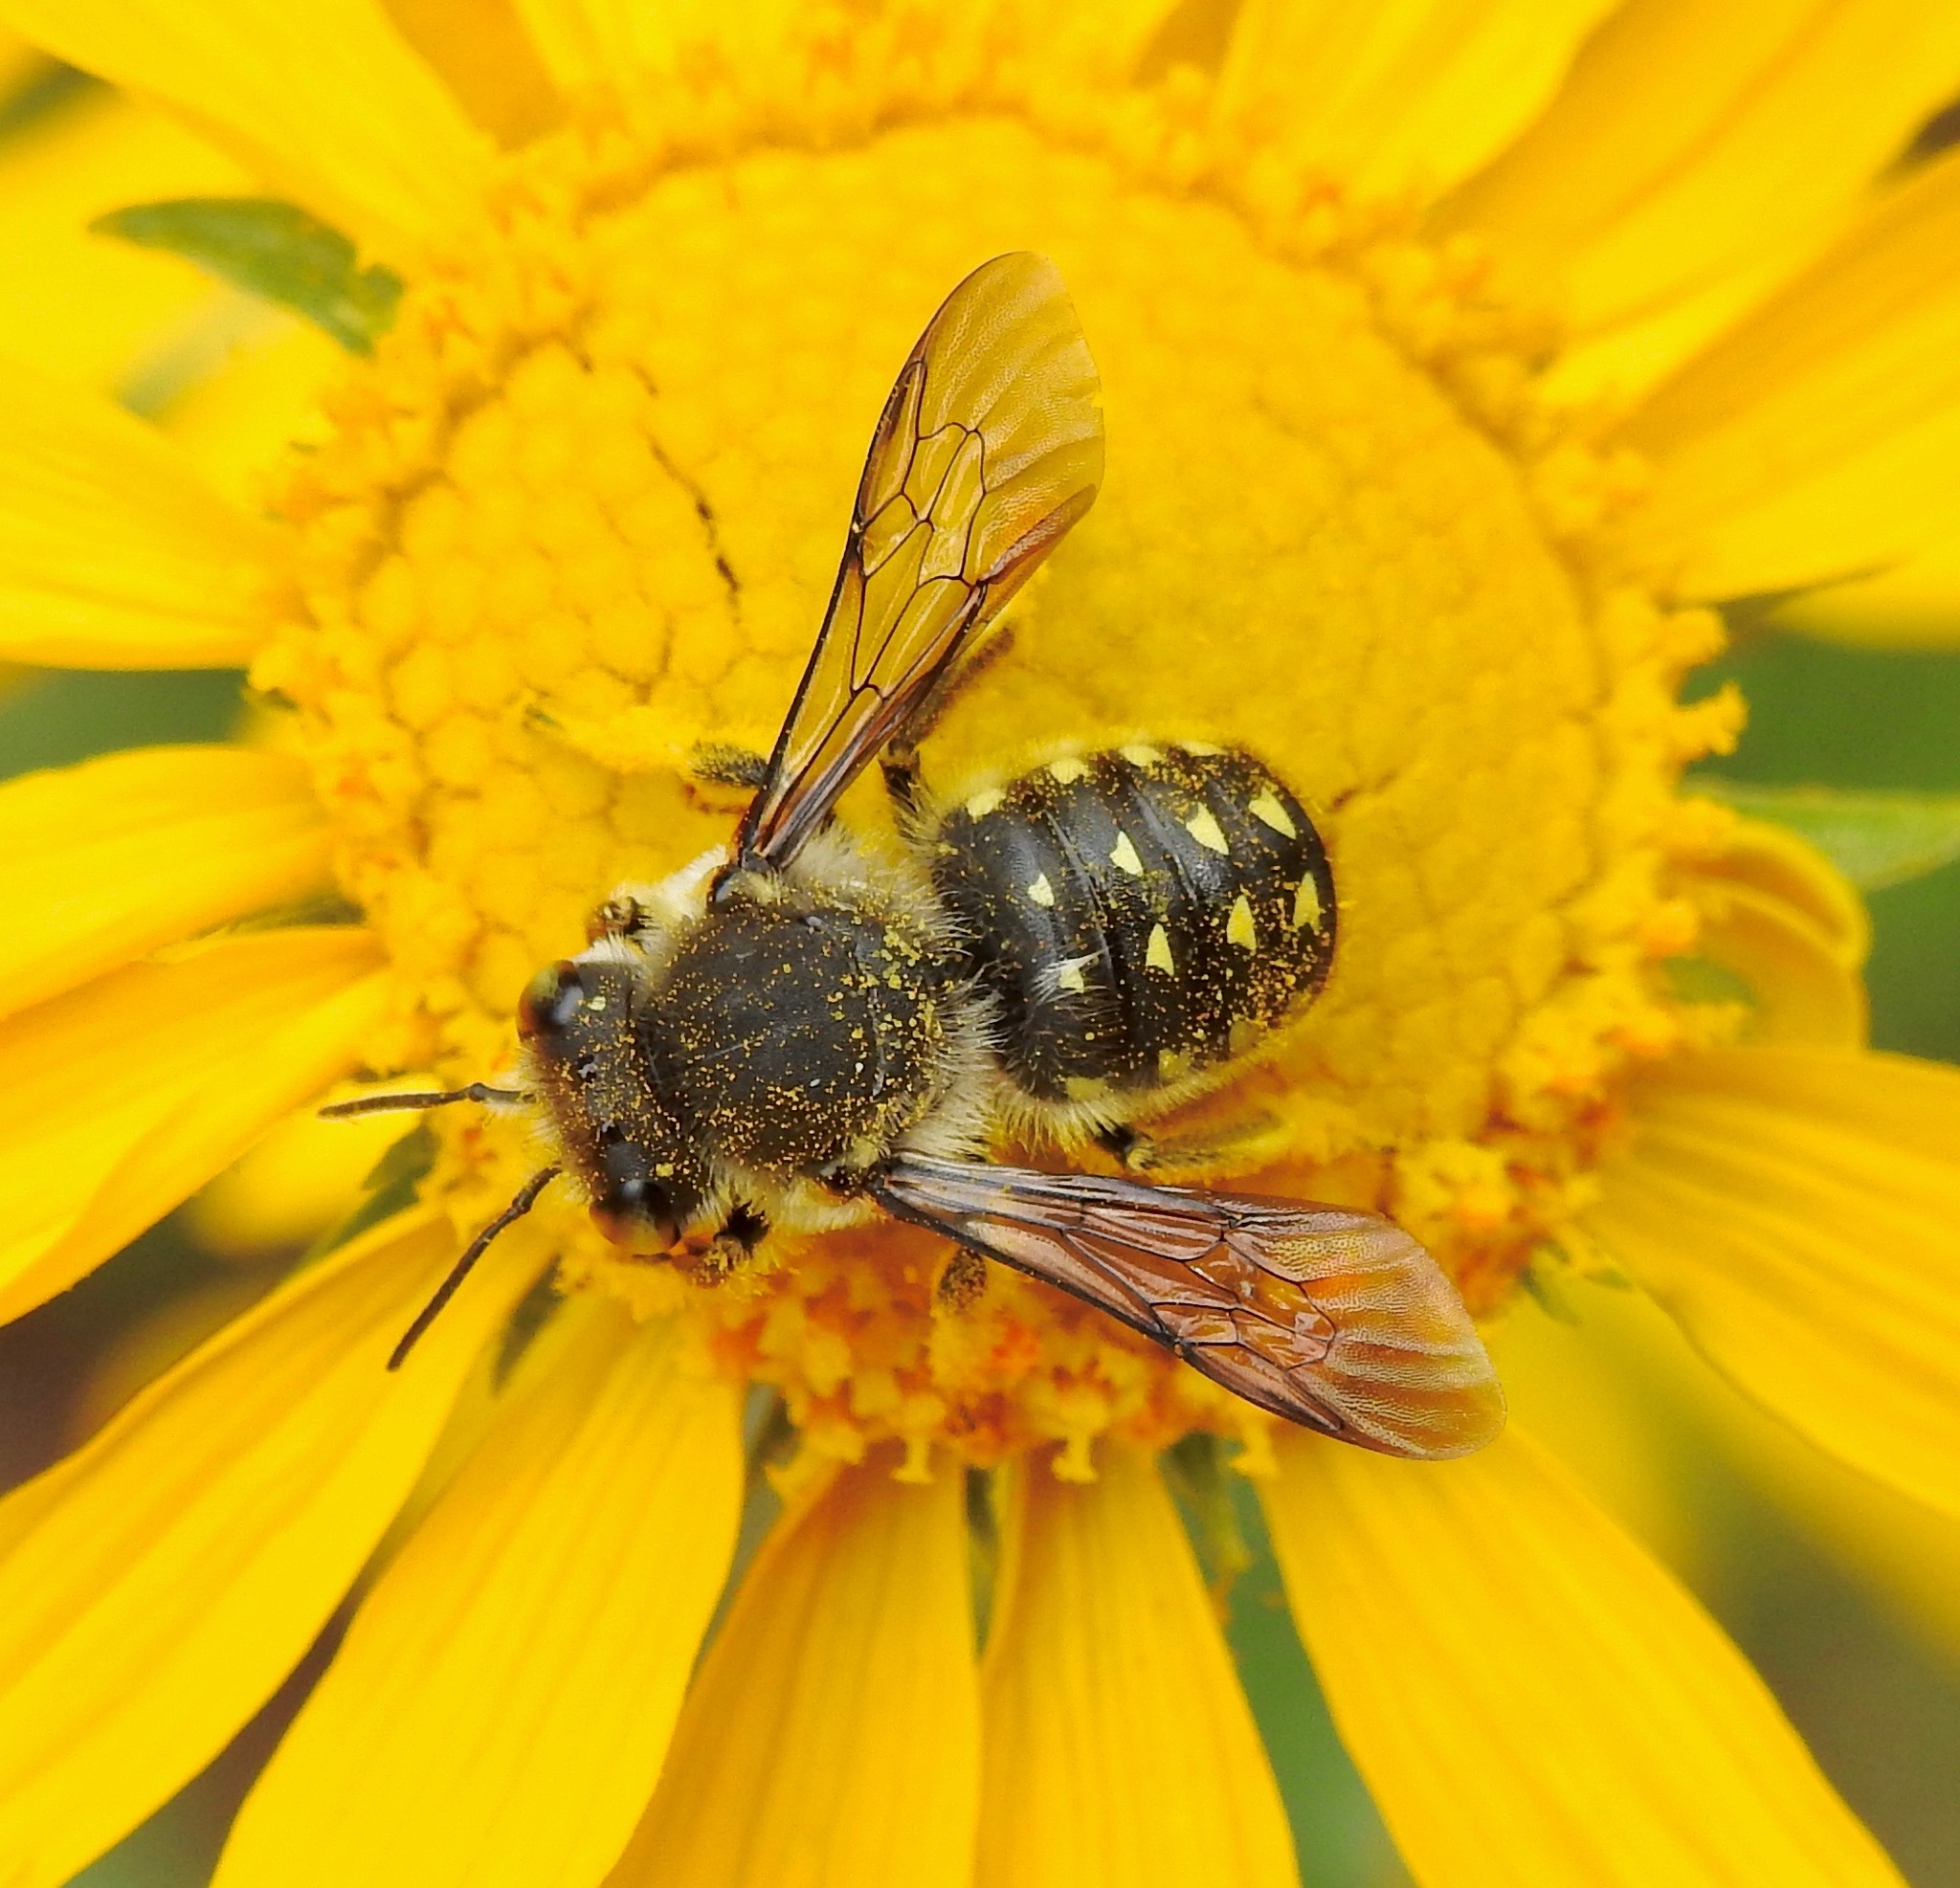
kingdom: Animalia
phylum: Arthropoda
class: Insecta
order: Hymenoptera
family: Megachilidae
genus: Anthidium
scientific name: Anthidium maculosum
